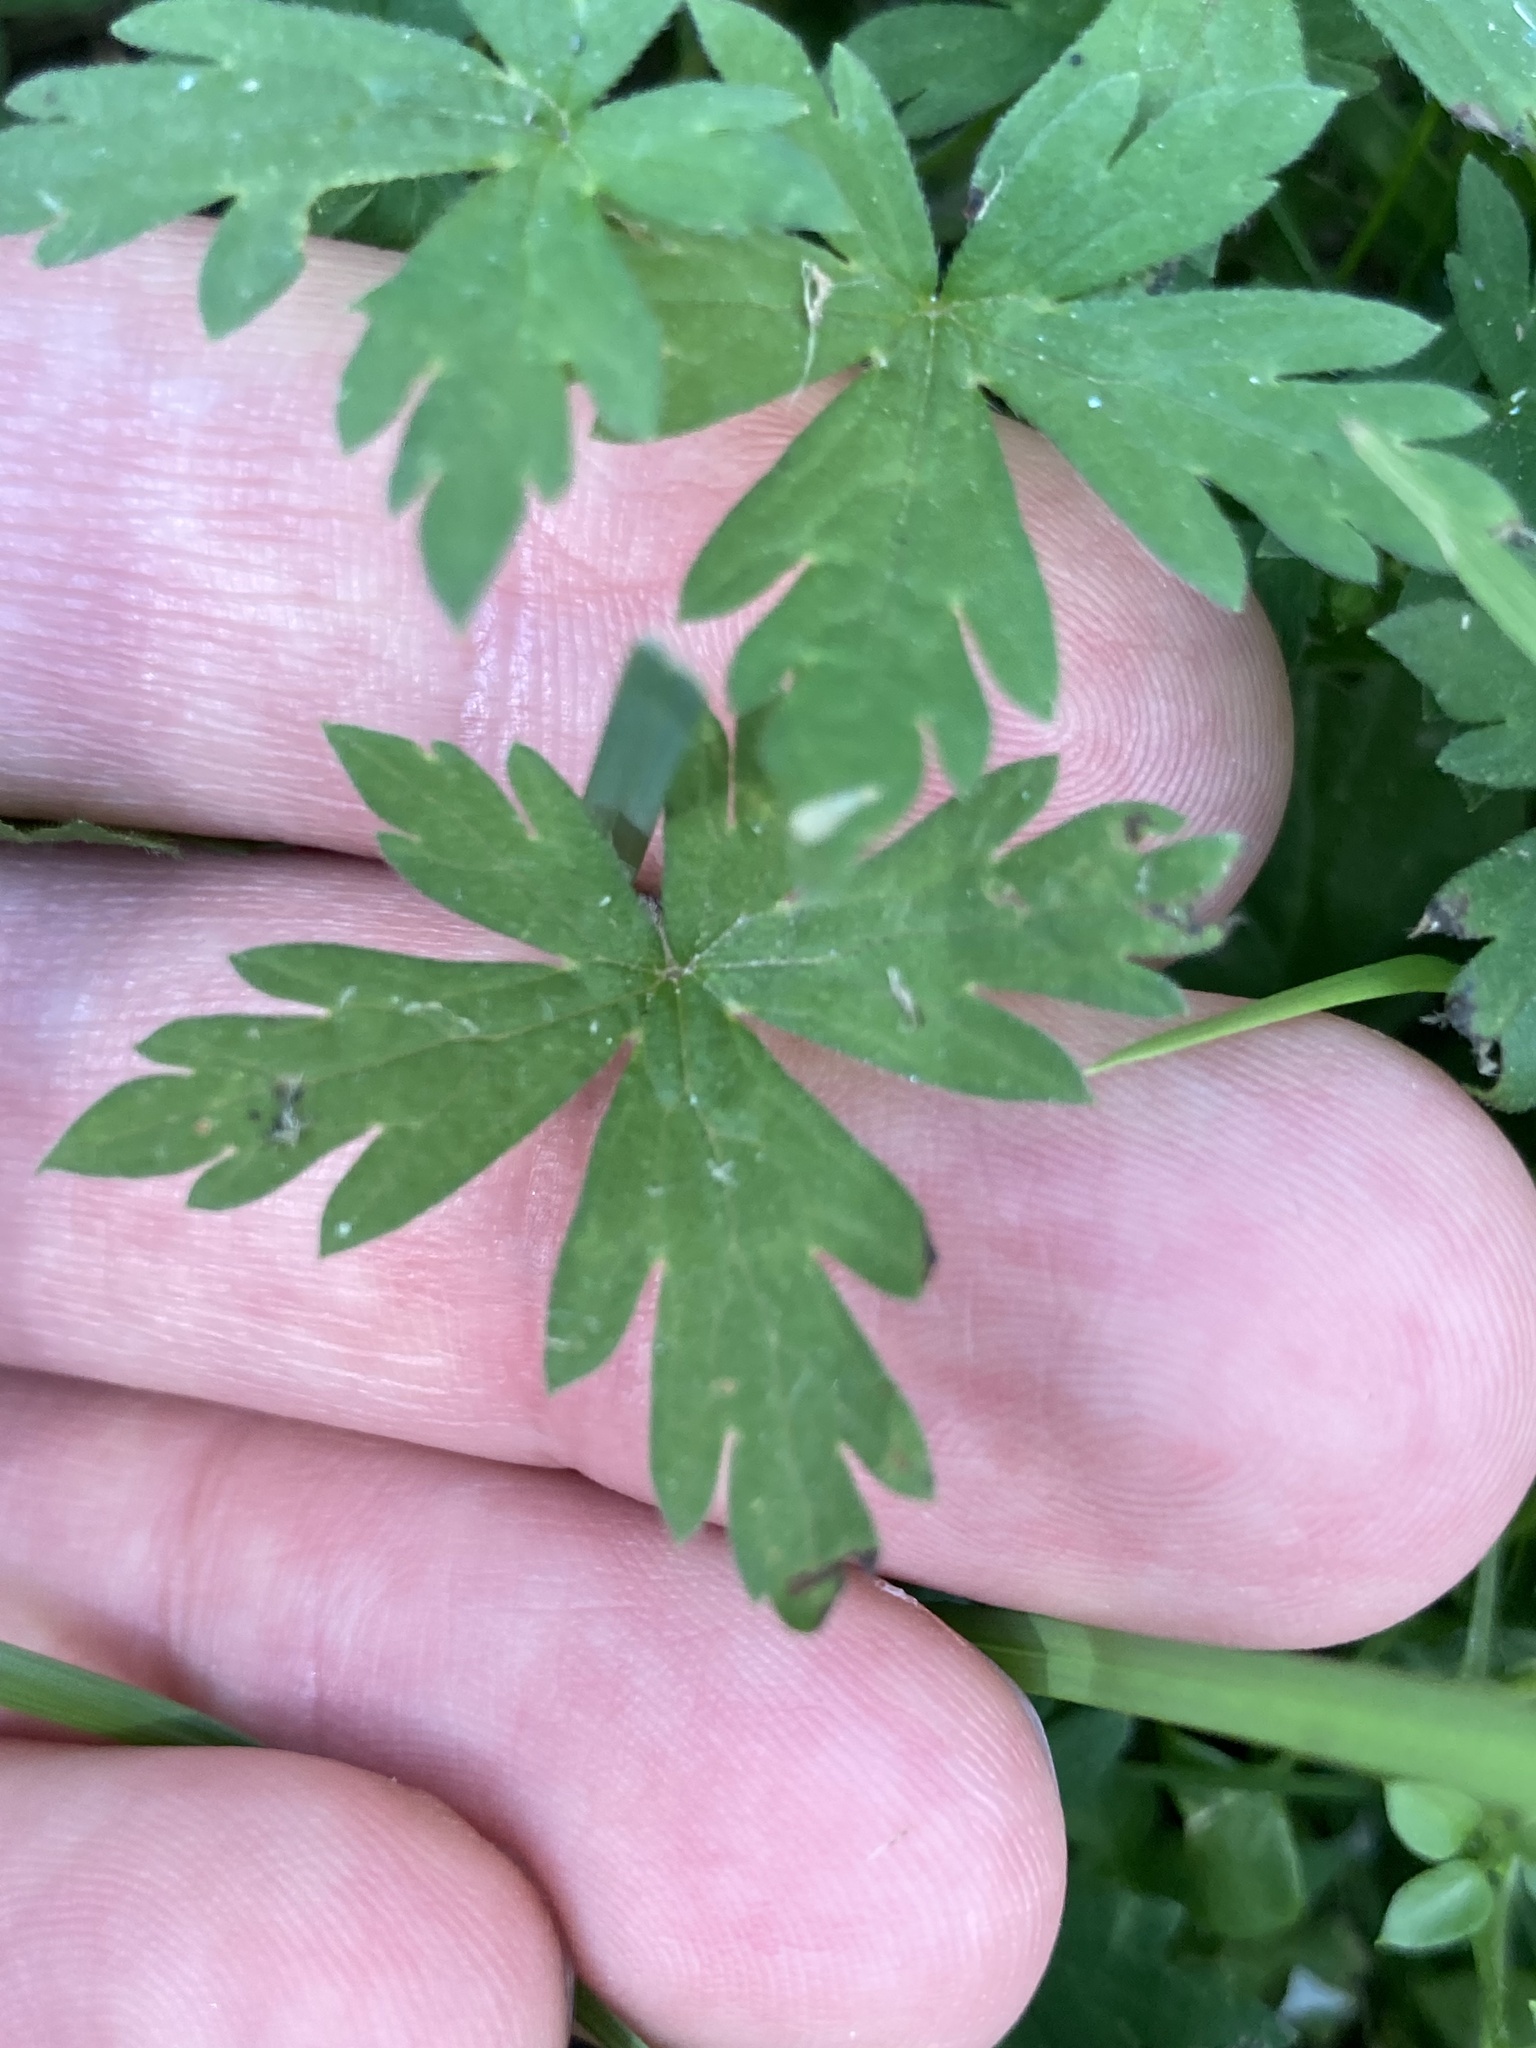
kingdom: Plantae
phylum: Tracheophyta
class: Magnoliopsida
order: Geraniales
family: Geraniaceae
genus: Geranium
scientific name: Geranium sibiricum
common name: Siberian crane's-bill
